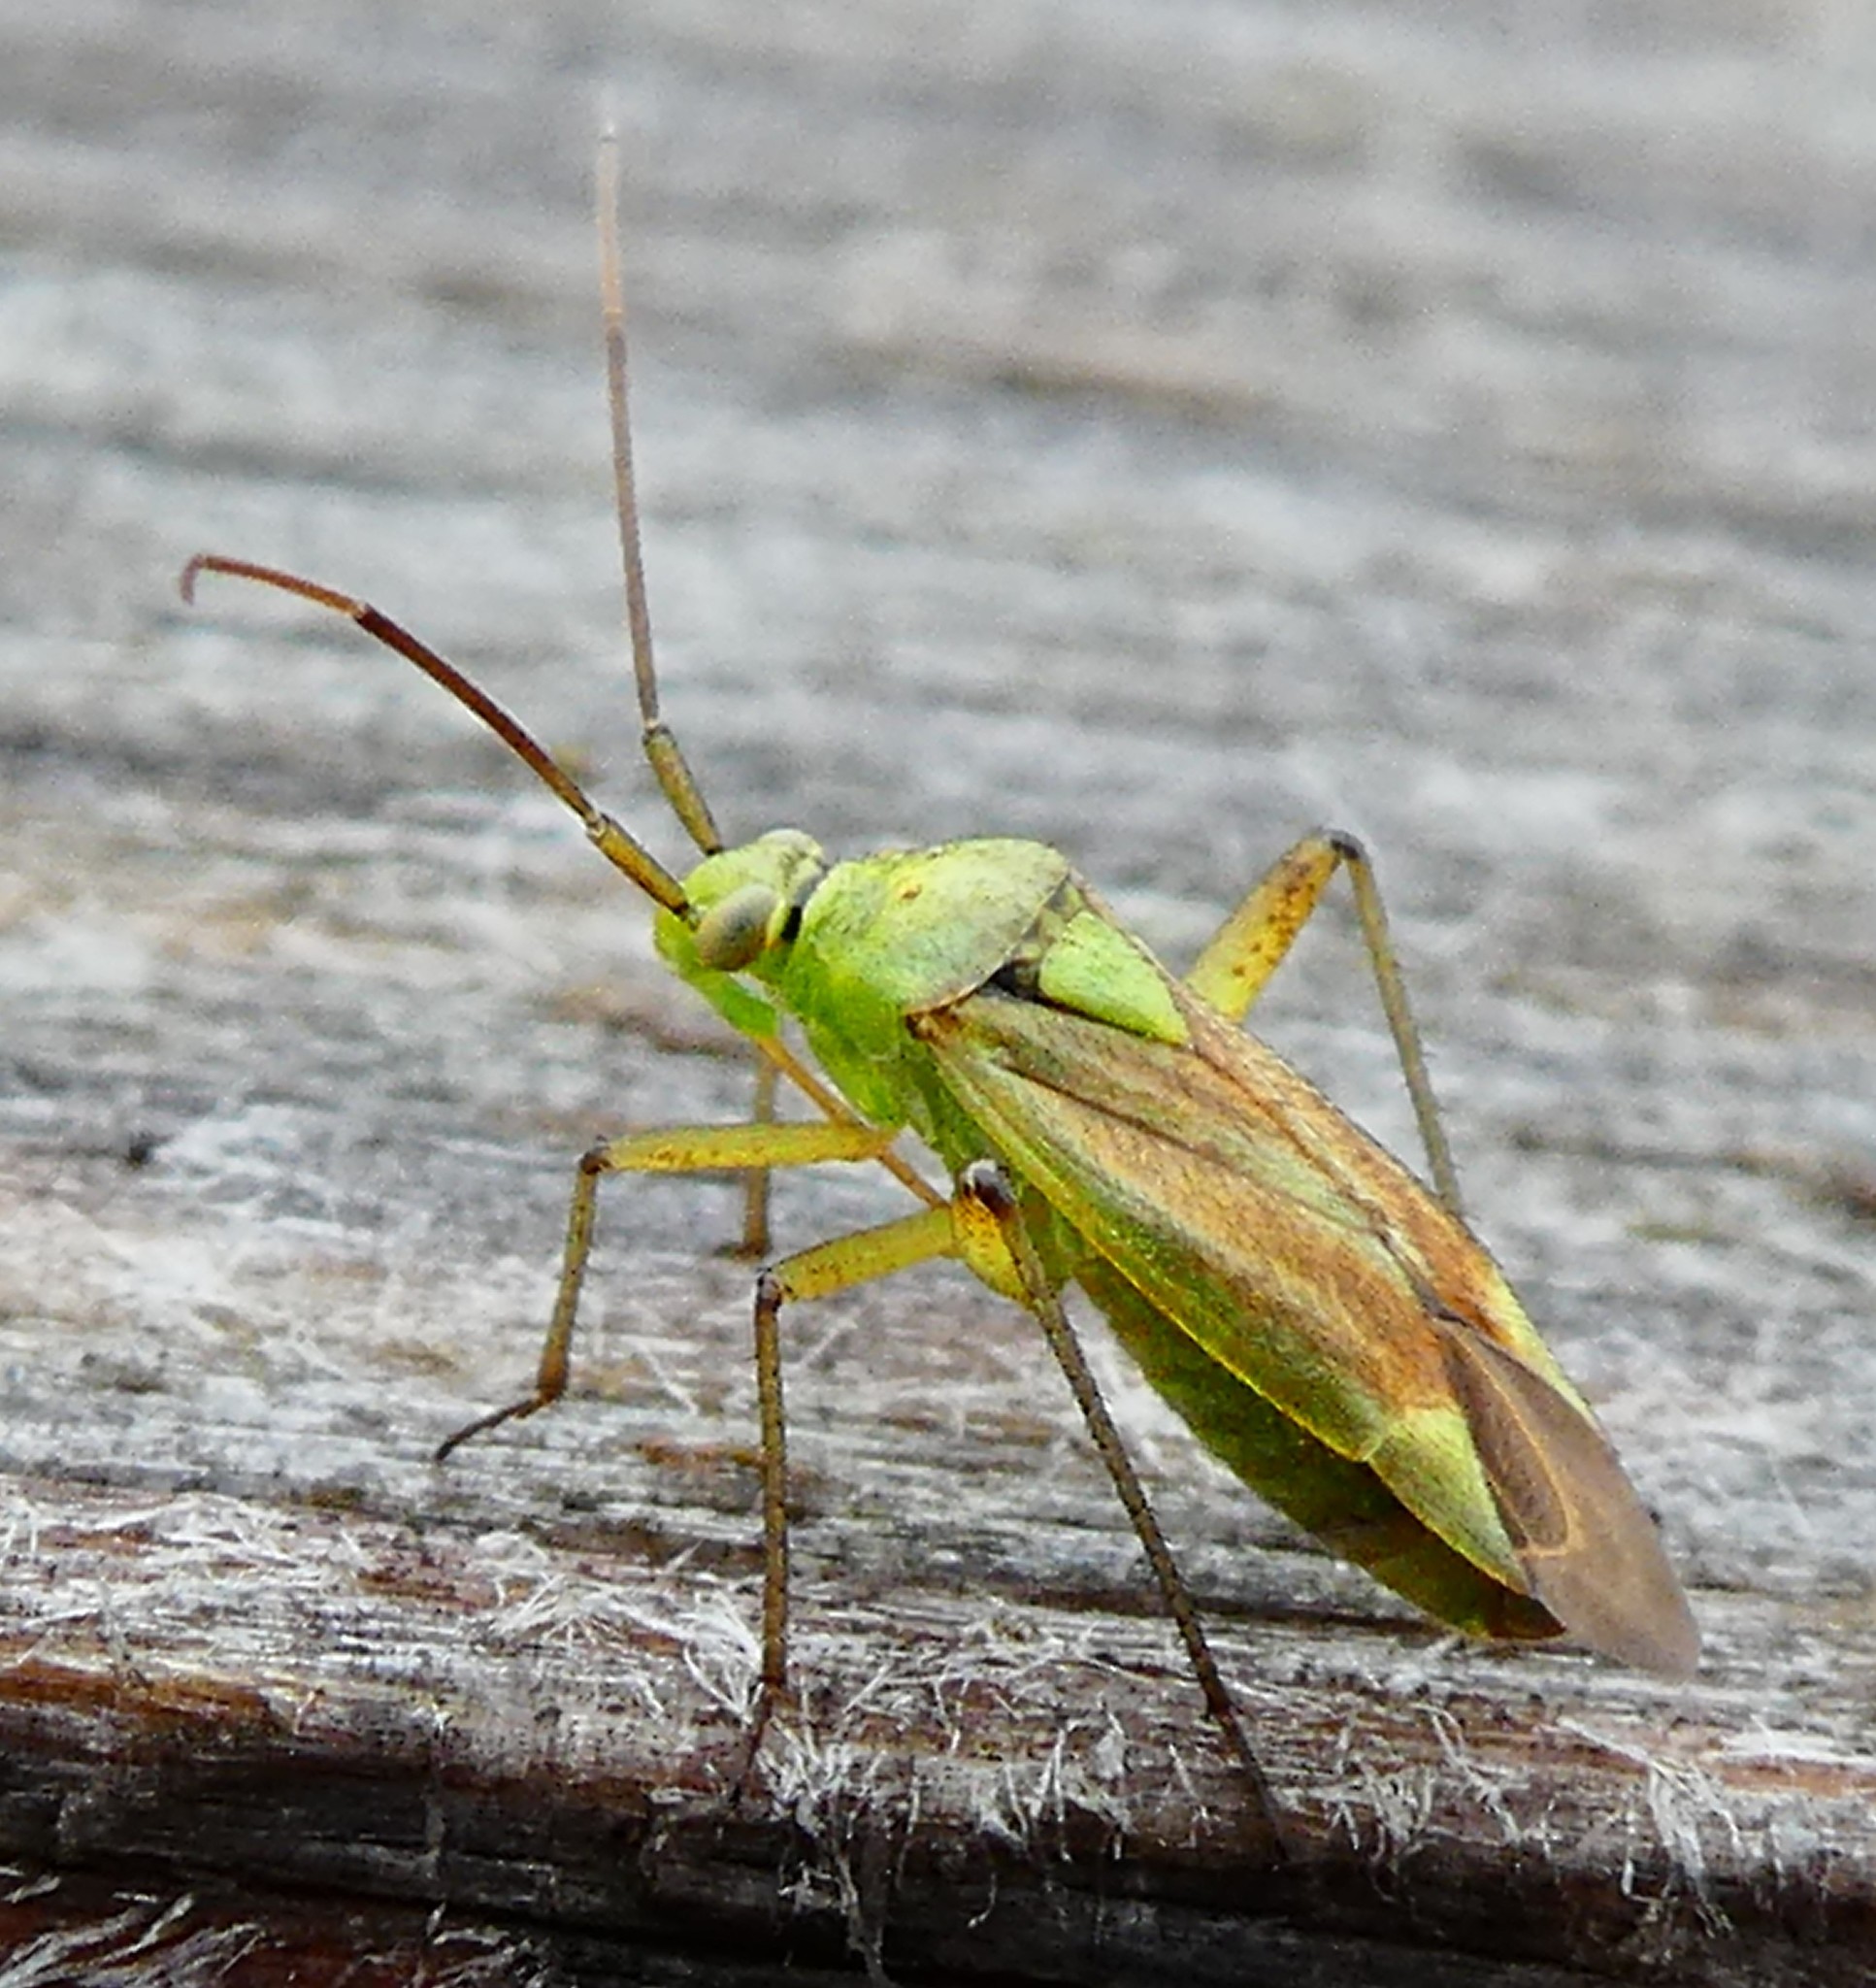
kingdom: Animalia
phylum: Arthropoda
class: Insecta
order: Hemiptera
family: Miridae
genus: Closterotomus
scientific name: Closterotomus norvegicus
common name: Plant bug
